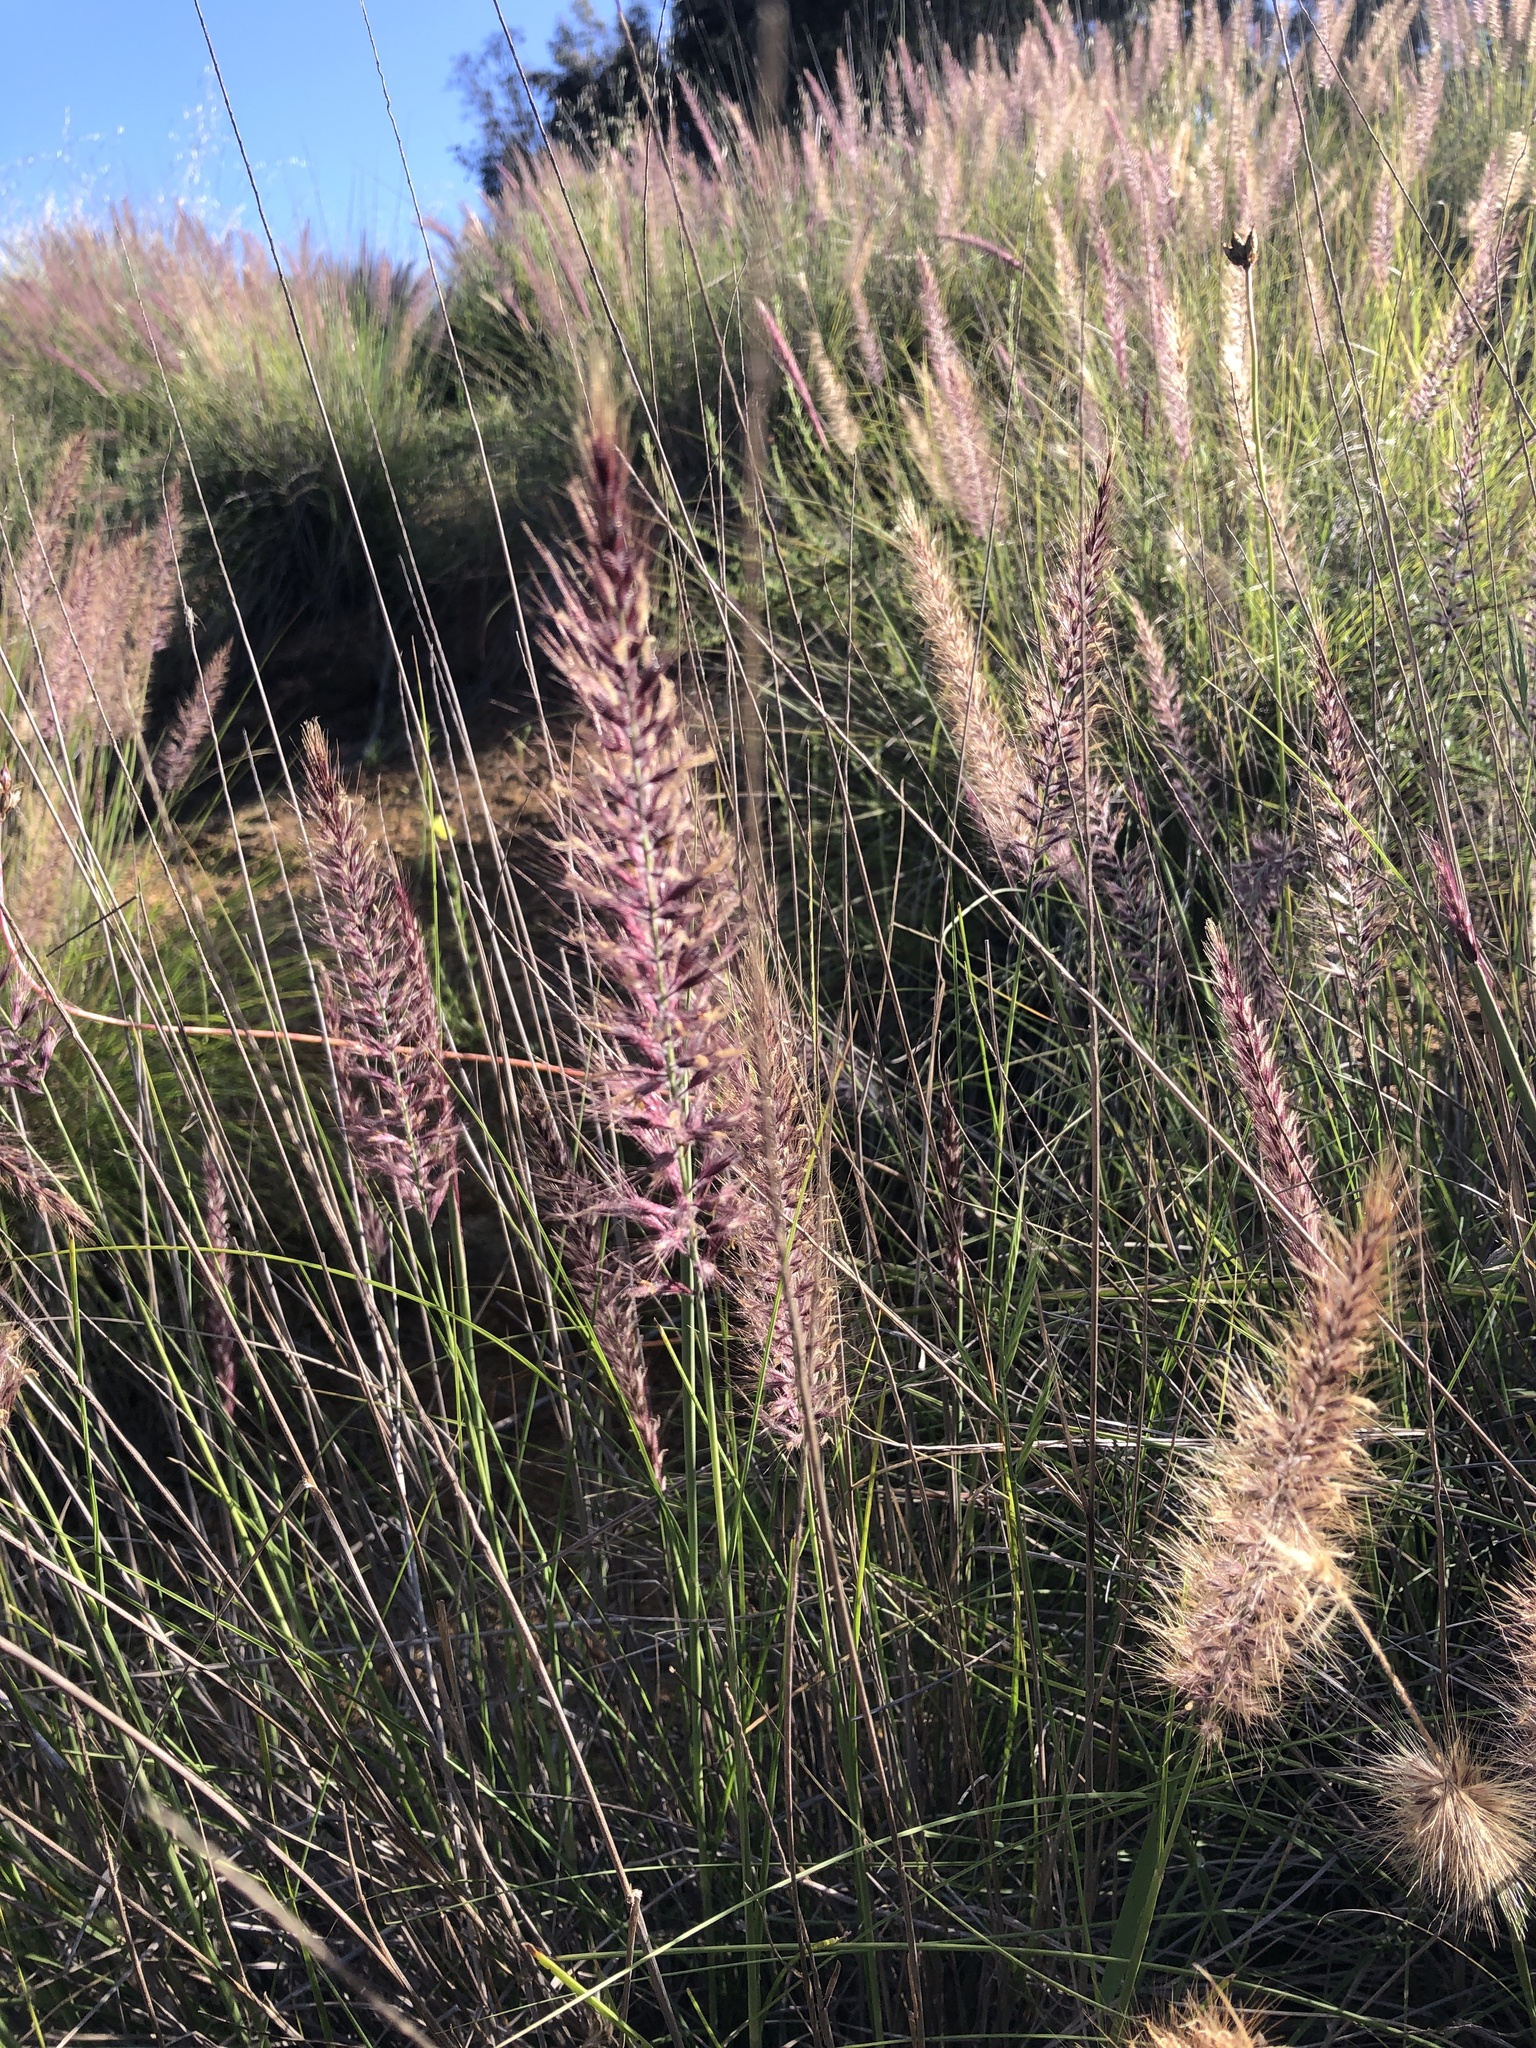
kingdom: Plantae
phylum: Tracheophyta
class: Liliopsida
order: Poales
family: Poaceae
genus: Cenchrus
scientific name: Cenchrus setaceus
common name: Crimson fountaingrass
